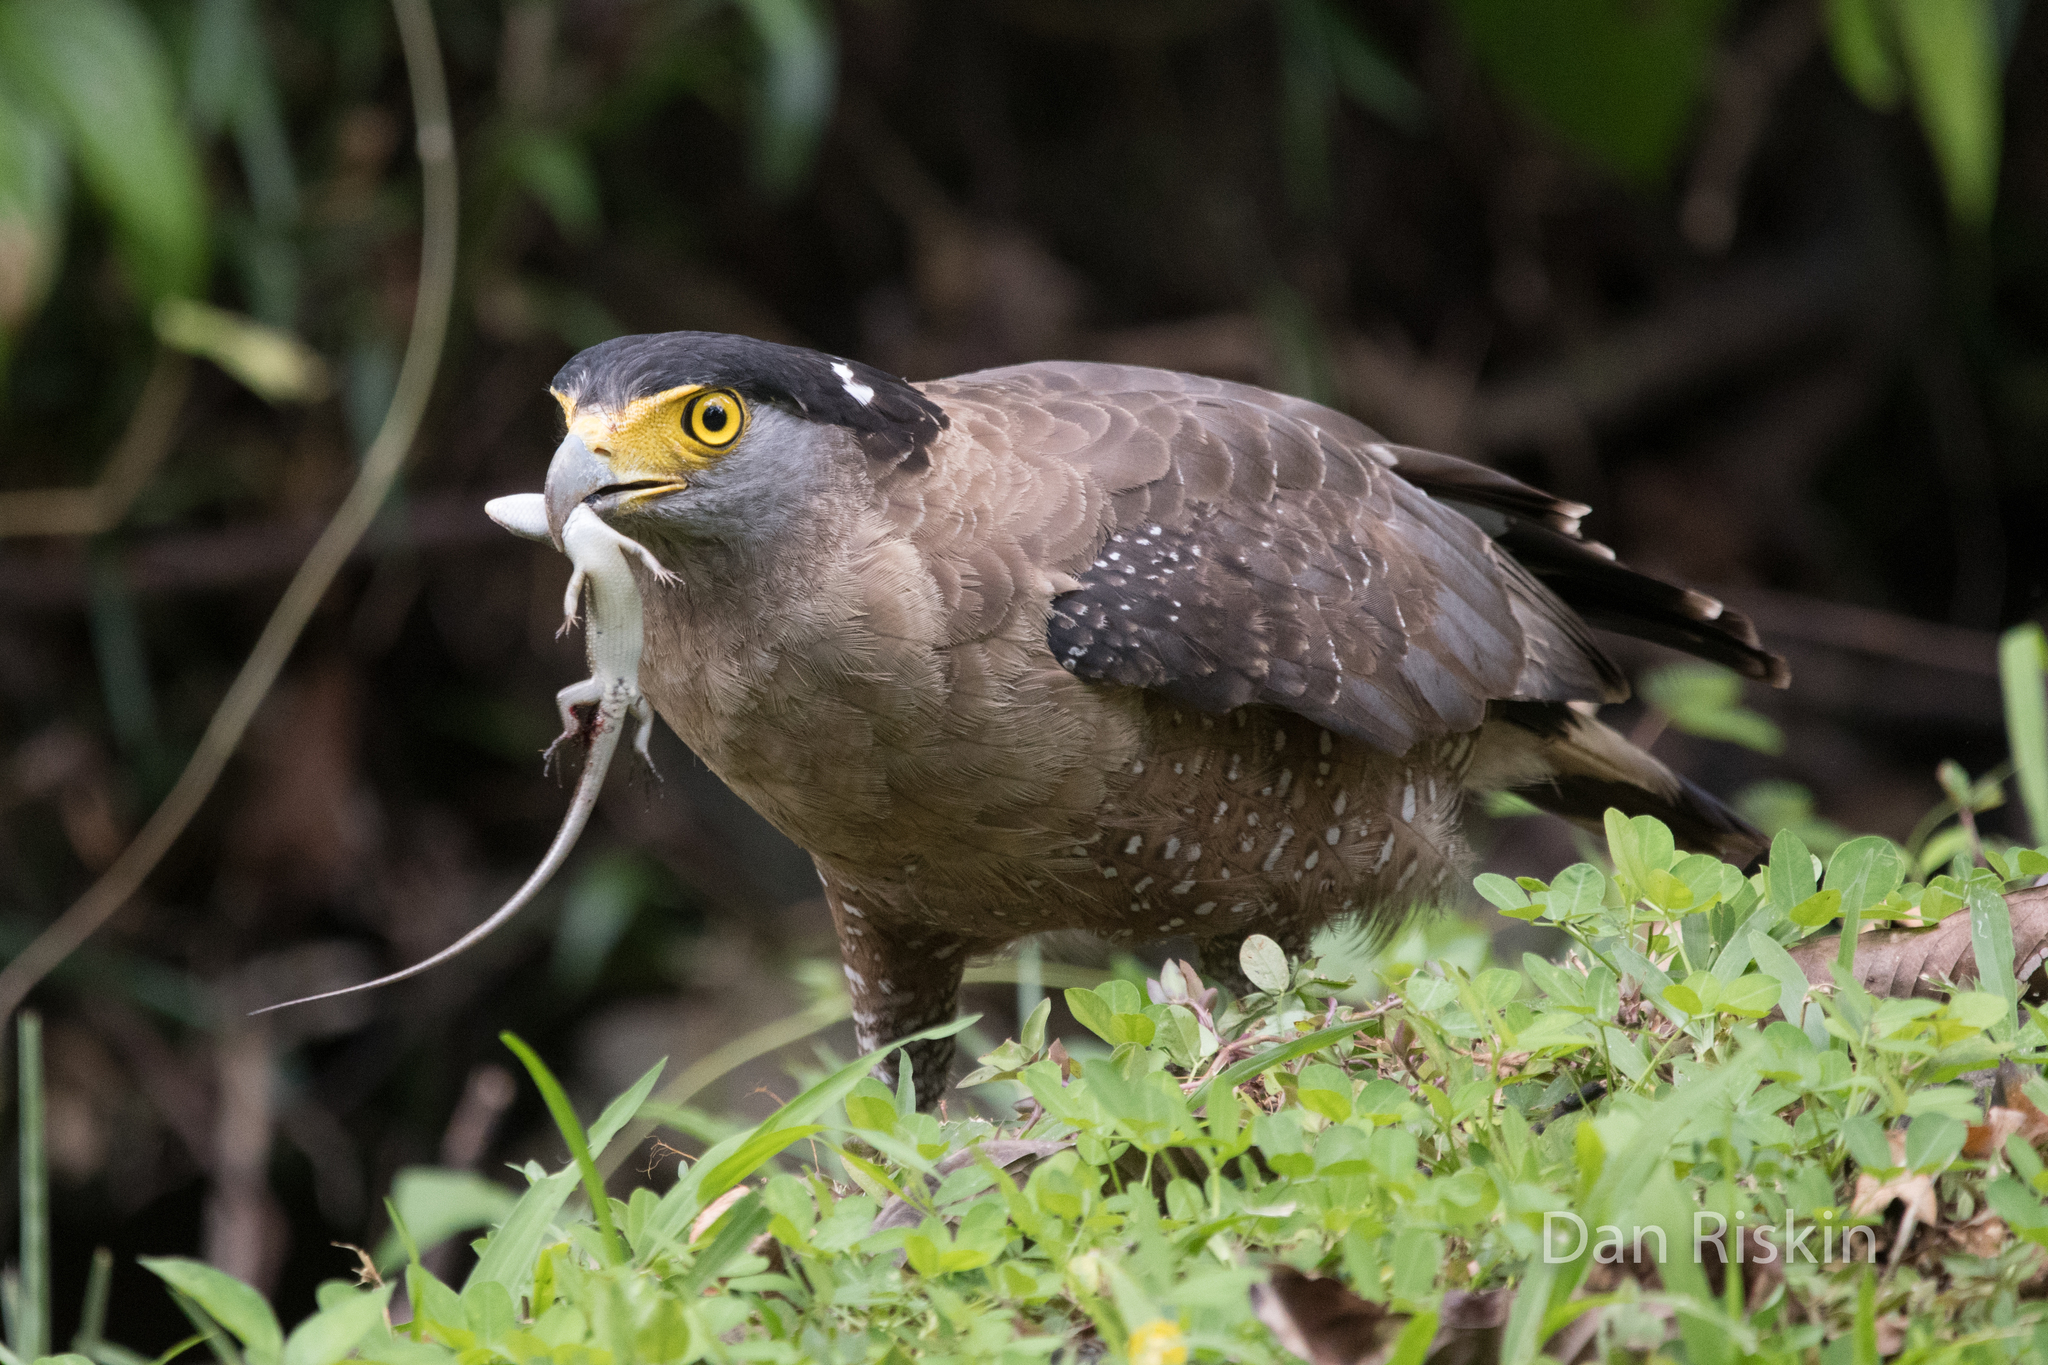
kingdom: Animalia
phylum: Chordata
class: Aves
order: Accipitriformes
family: Accipitridae
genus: Spilornis
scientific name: Spilornis cheela
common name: Crested serpent eagle
